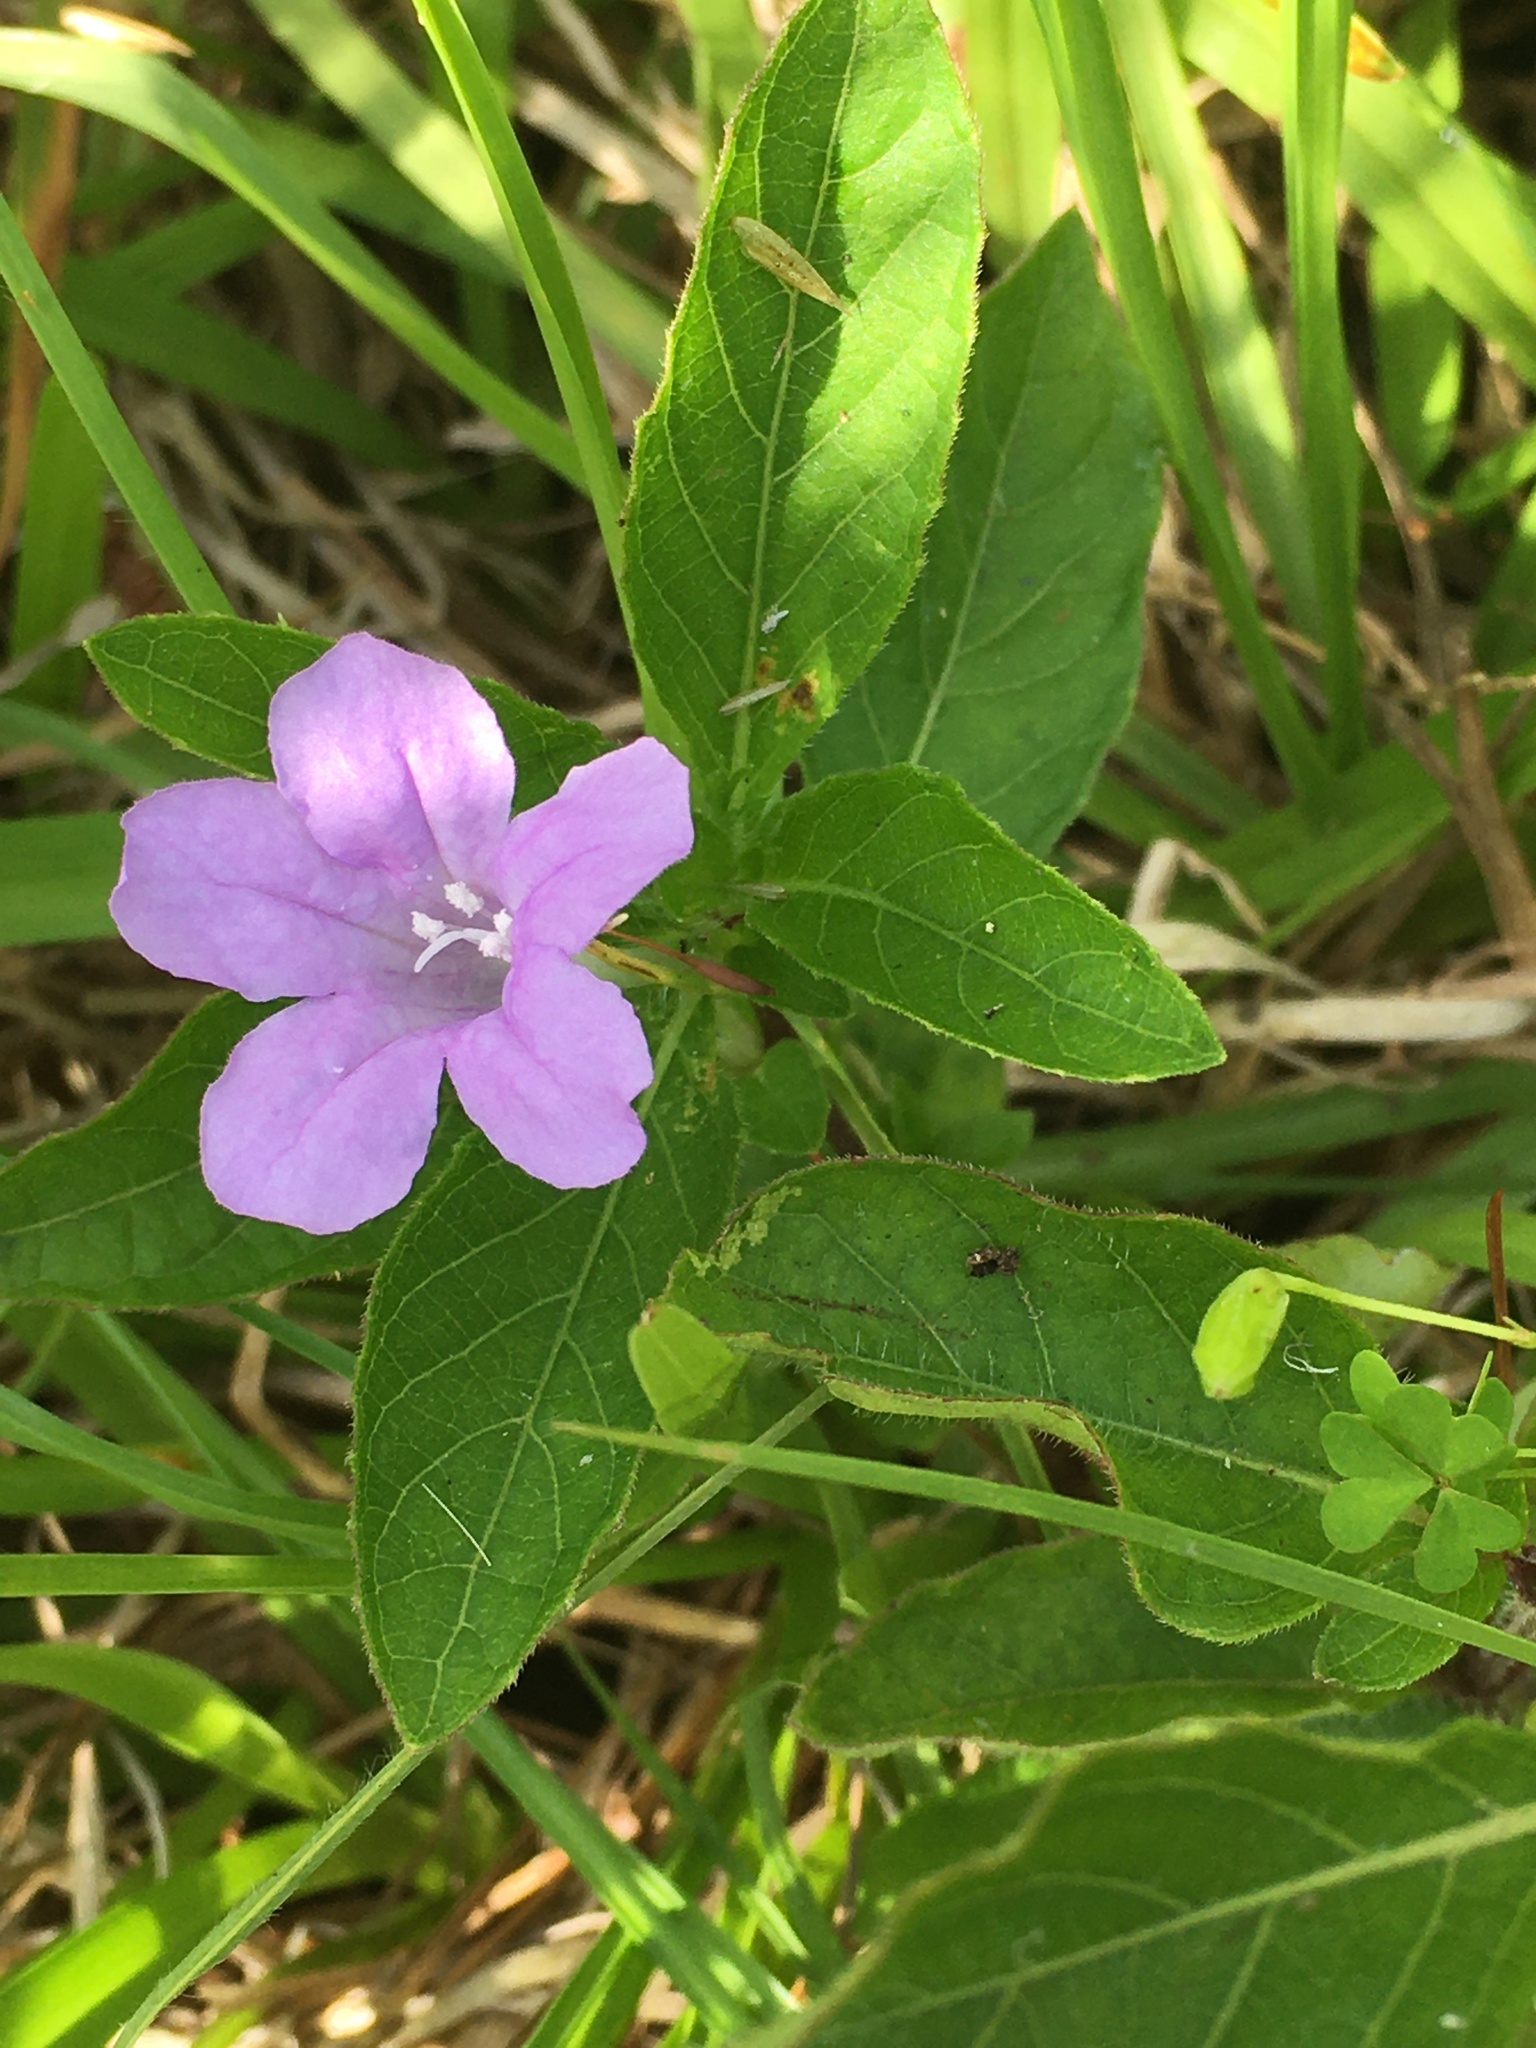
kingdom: Plantae
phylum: Tracheophyta
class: Magnoliopsida
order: Lamiales
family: Acanthaceae
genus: Ruellia
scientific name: Ruellia caroliniensis
